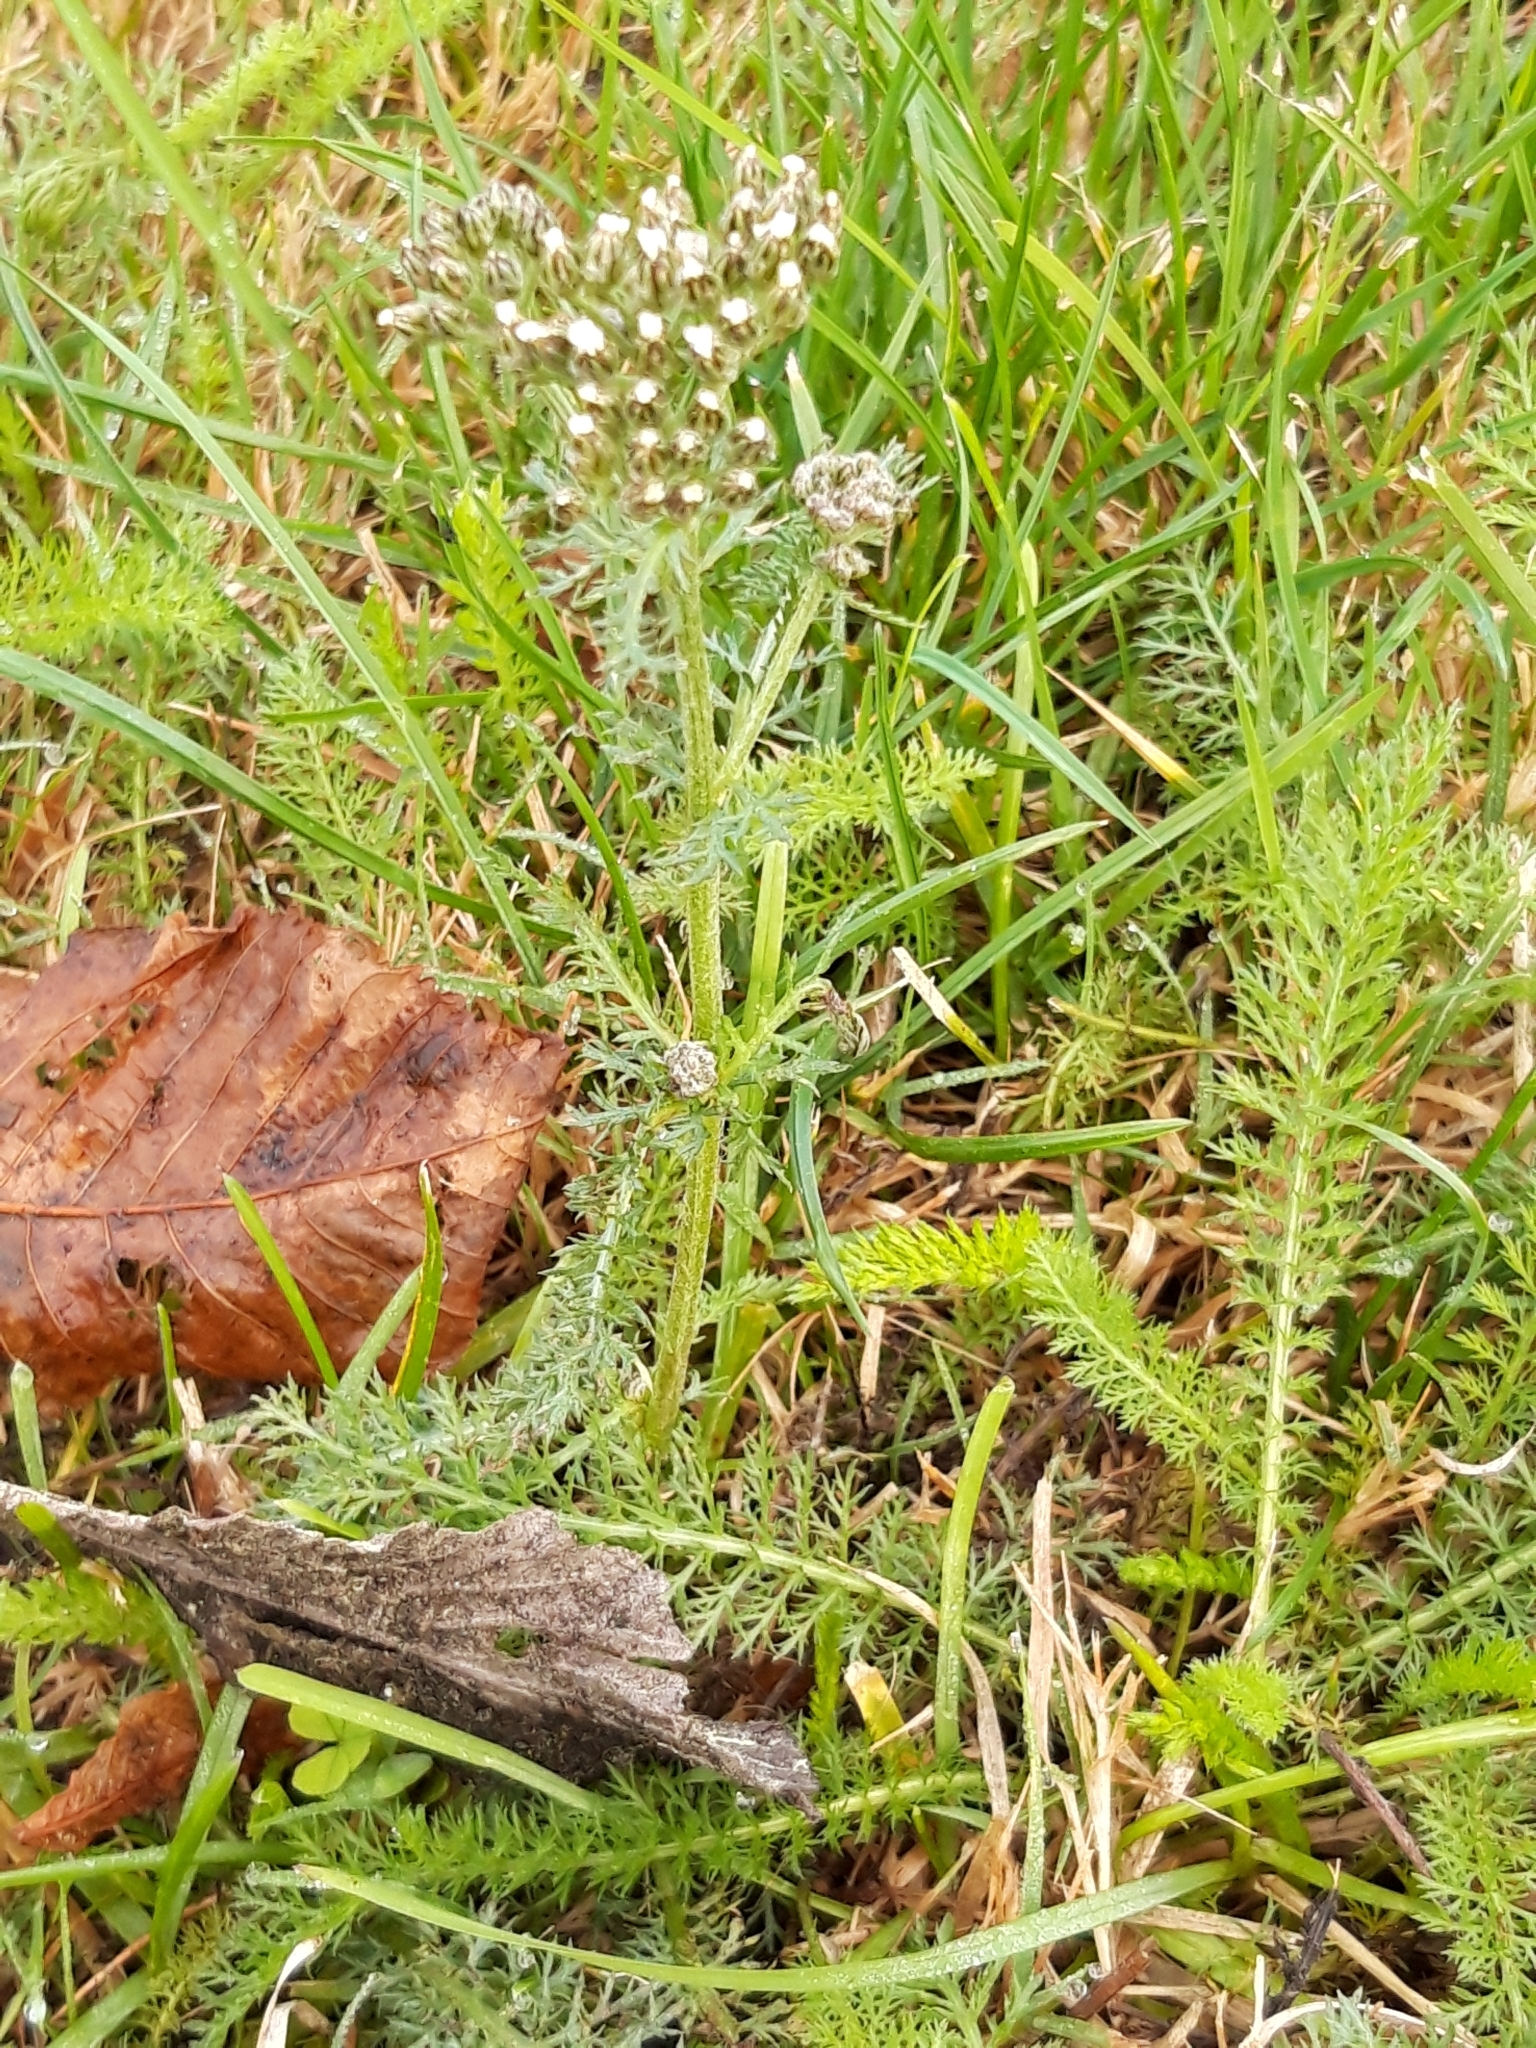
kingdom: Plantae
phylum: Tracheophyta
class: Magnoliopsida
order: Asterales
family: Asteraceae
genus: Achillea
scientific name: Achillea millefolium
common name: Yarrow
